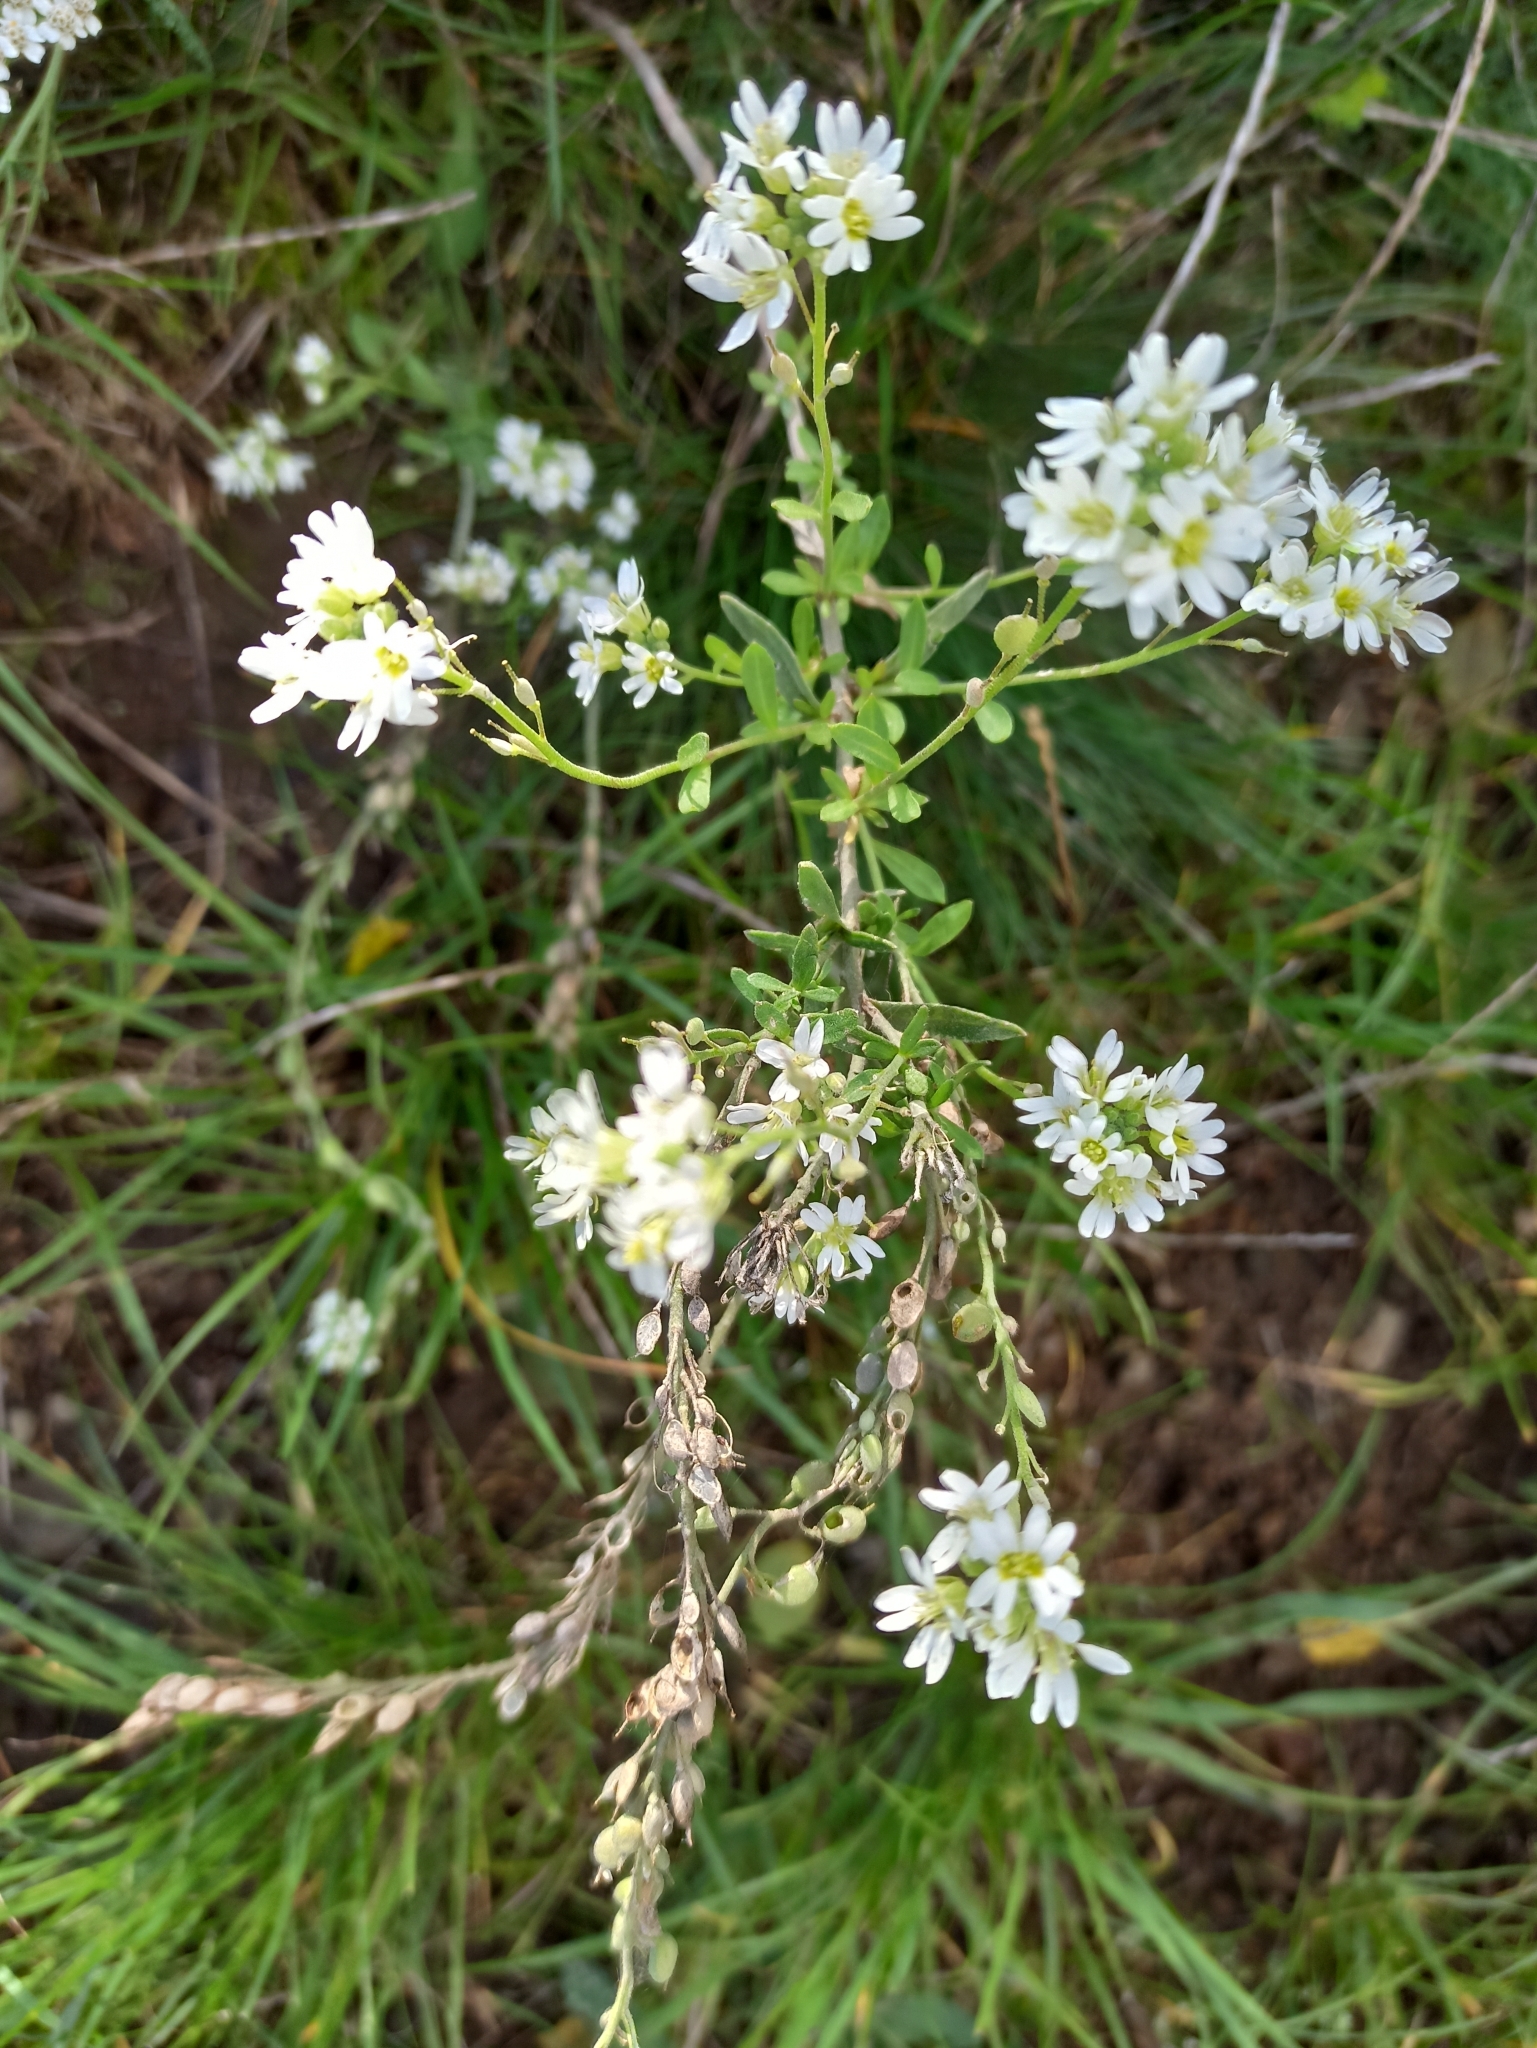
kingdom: Plantae
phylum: Tracheophyta
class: Magnoliopsida
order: Brassicales
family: Brassicaceae
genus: Berteroa
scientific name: Berteroa incana
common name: Hoary alison
